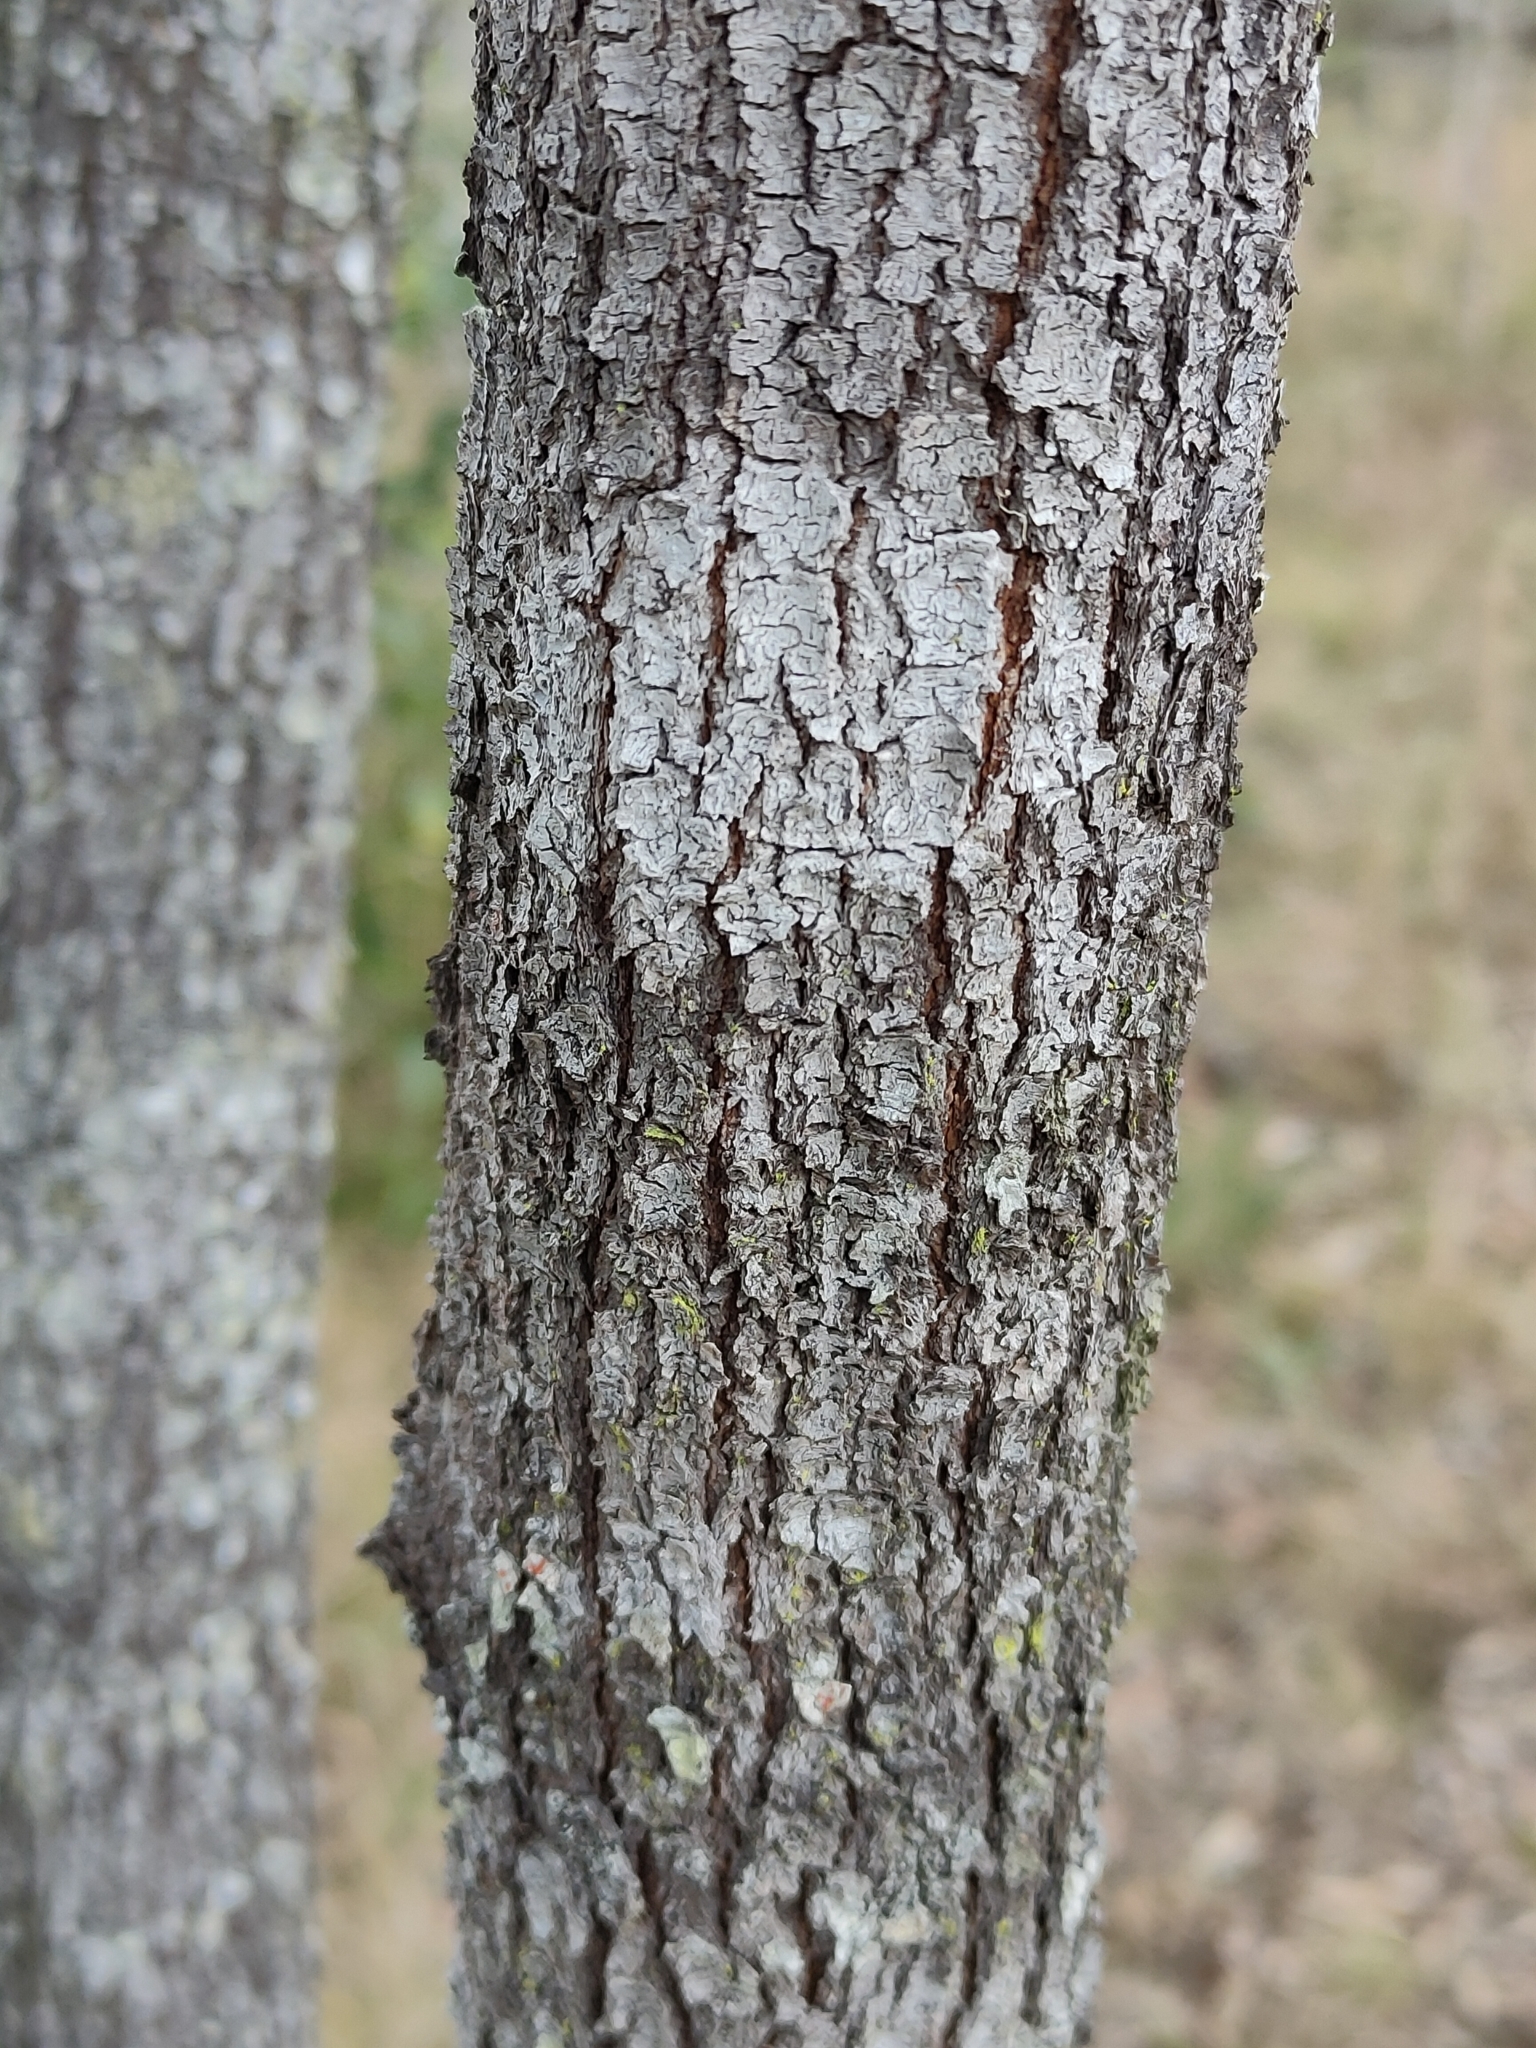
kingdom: Plantae
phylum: Tracheophyta
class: Magnoliopsida
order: Fabales
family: Fabaceae
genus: Acacia
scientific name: Acacia disparrima
